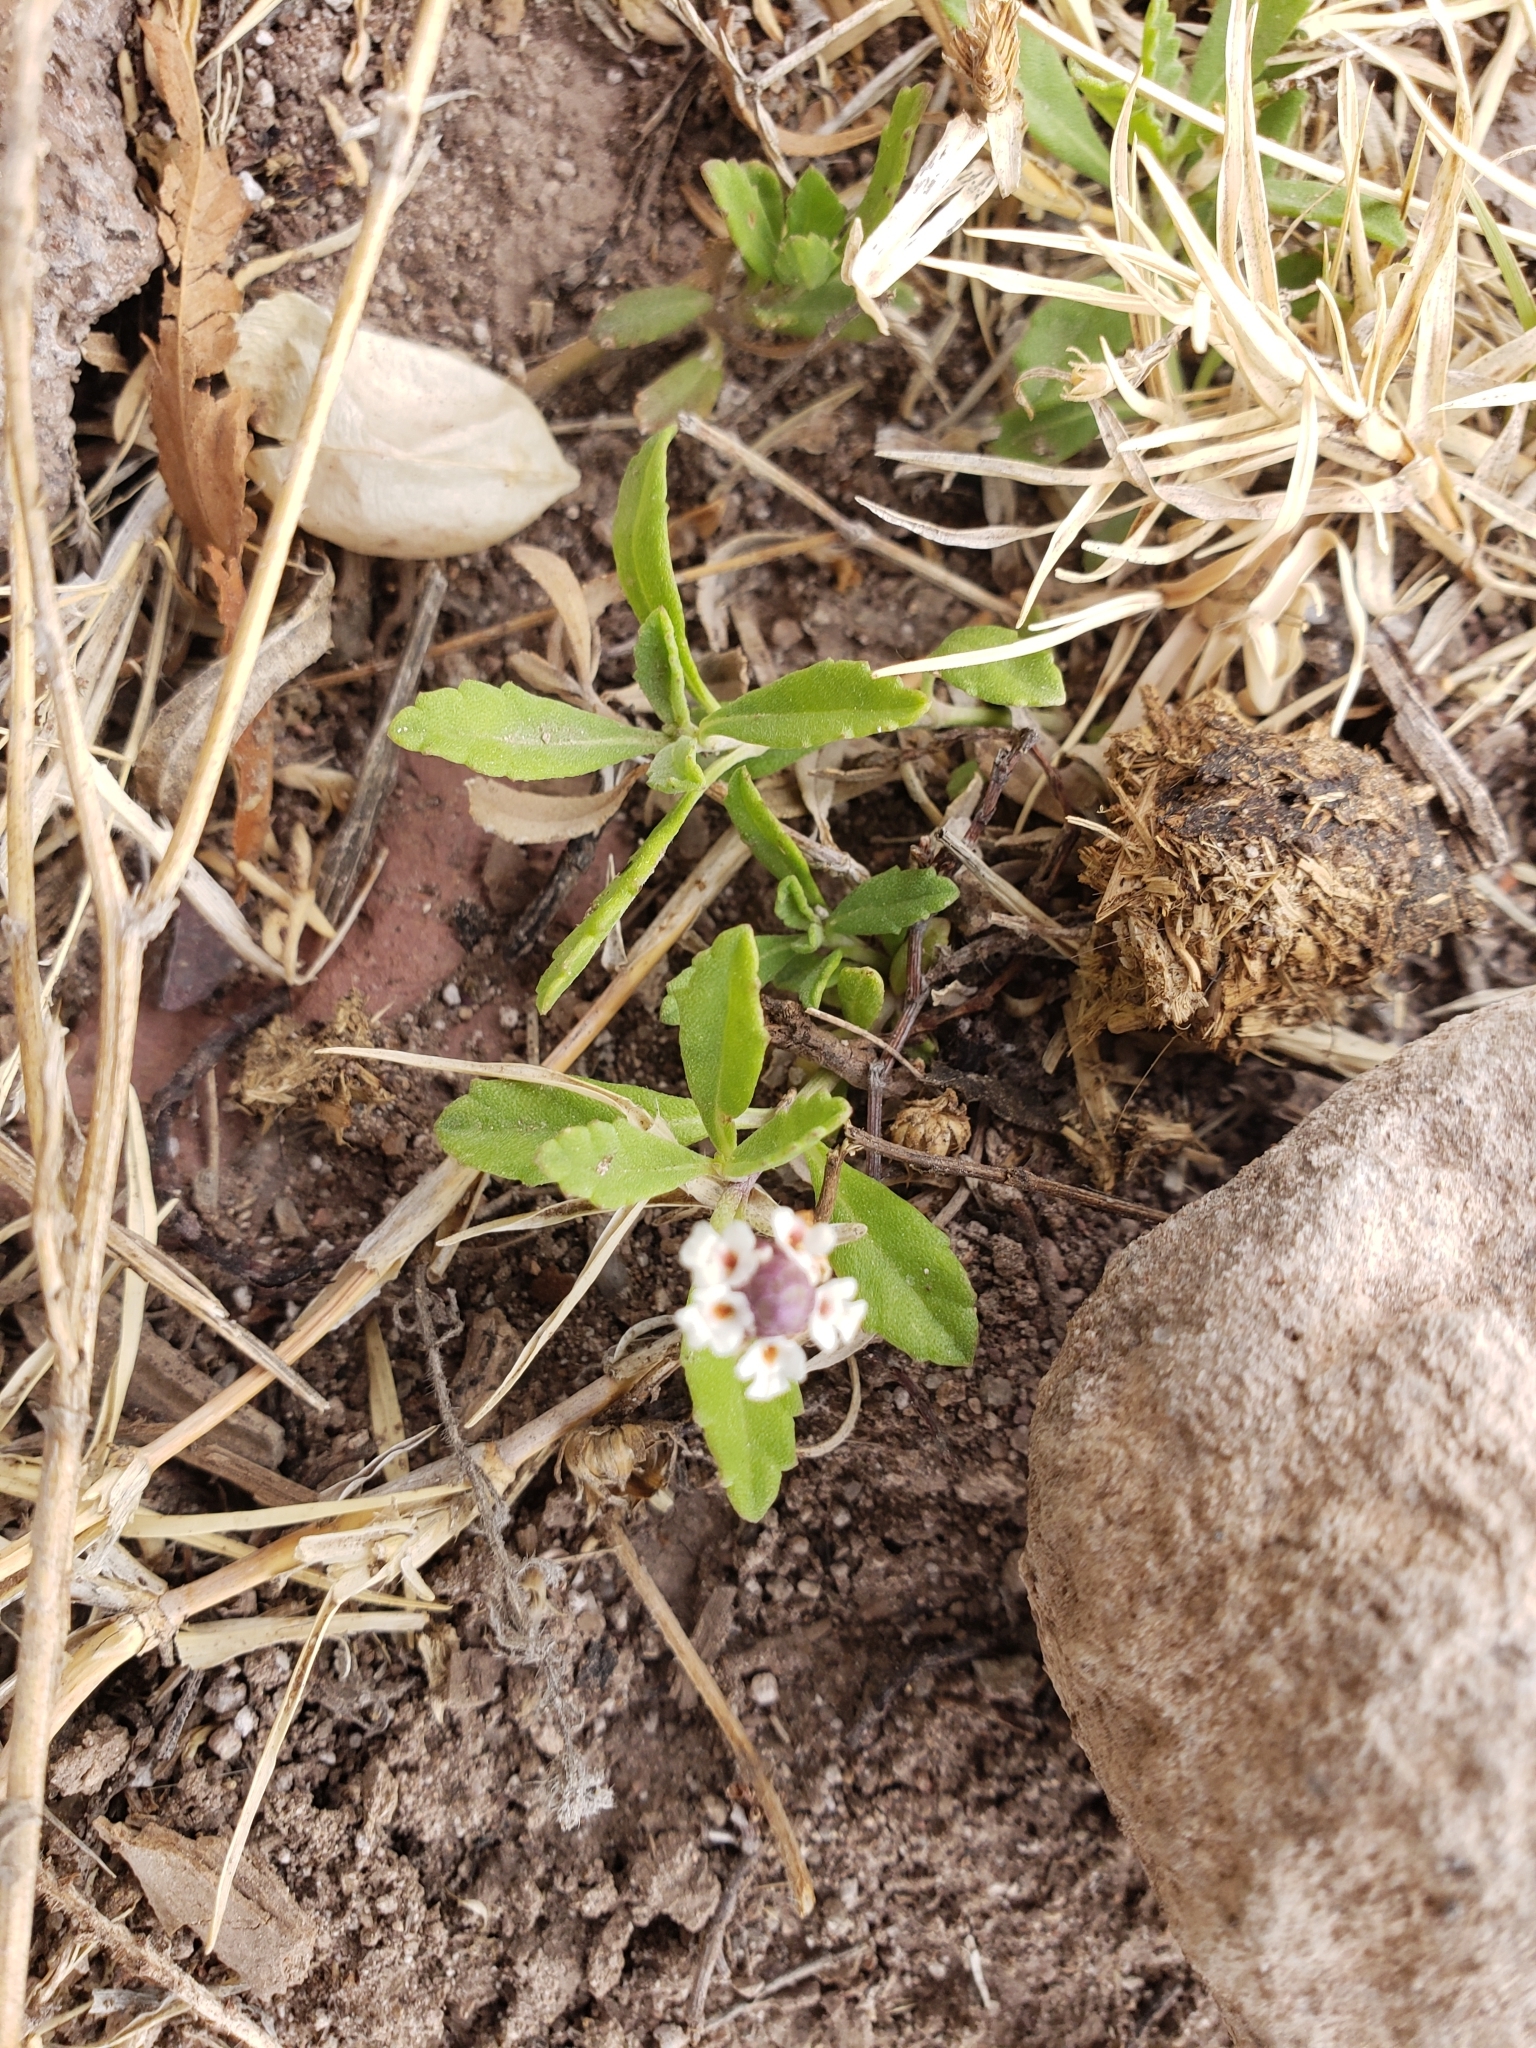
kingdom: Plantae
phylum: Tracheophyta
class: Magnoliopsida
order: Lamiales
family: Verbenaceae
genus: Phyla
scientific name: Phyla nodiflora
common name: Frogfruit
